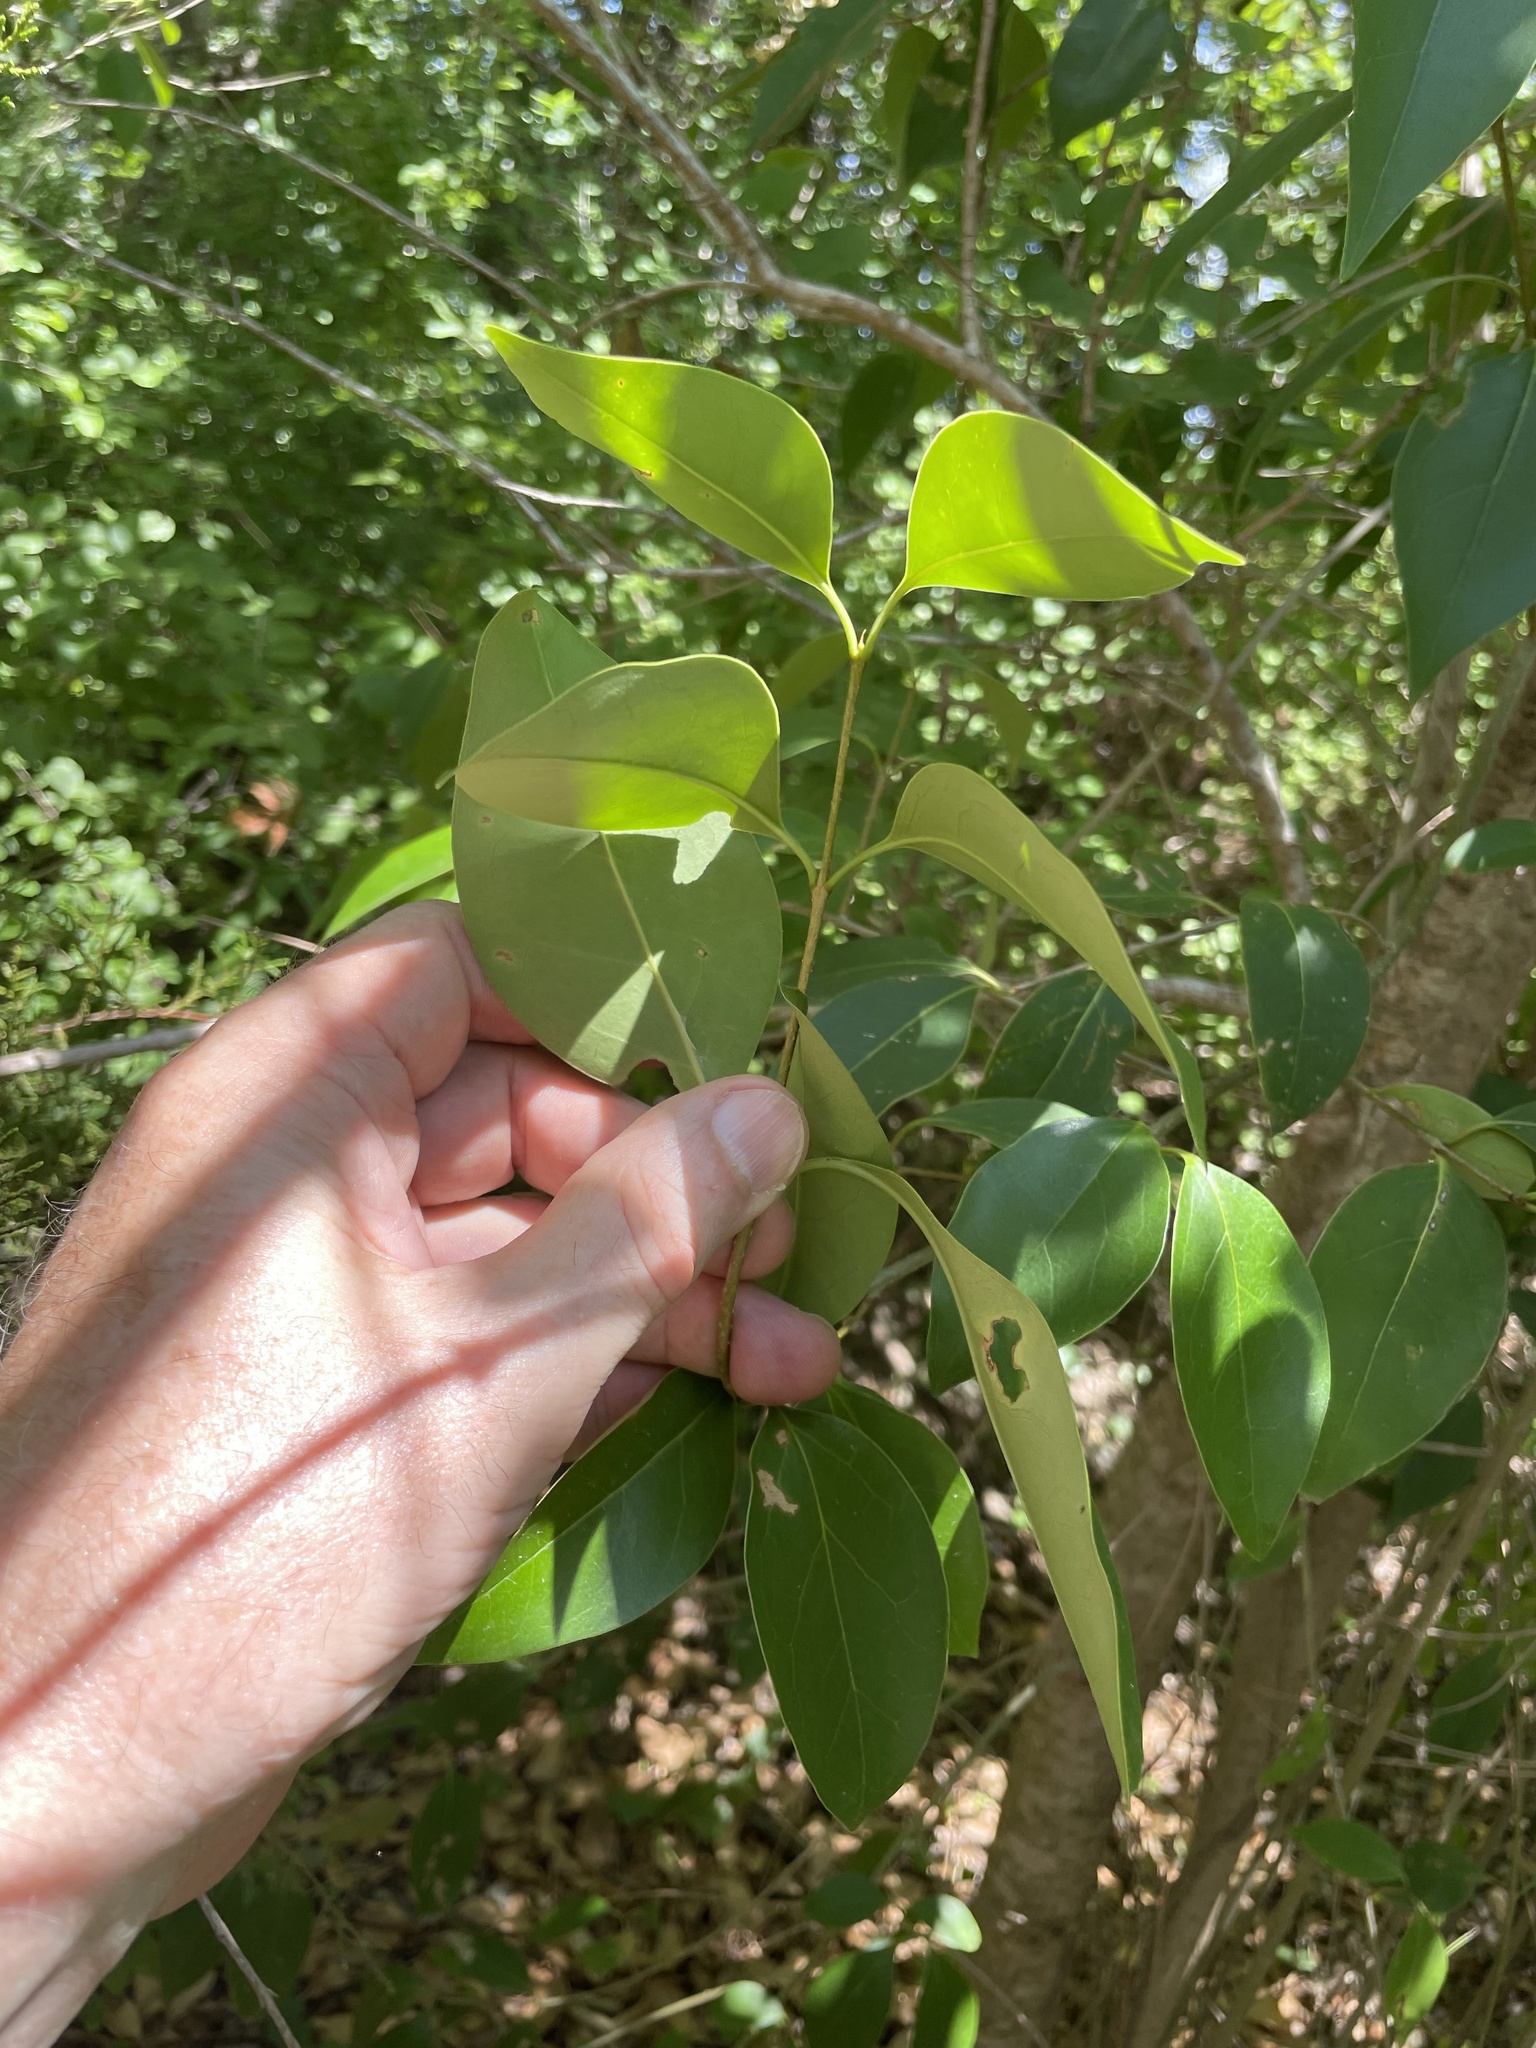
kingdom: Plantae
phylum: Tracheophyta
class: Magnoliopsida
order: Lamiales
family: Oleaceae
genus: Ligustrum
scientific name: Ligustrum lucidum
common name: Glossy privet
